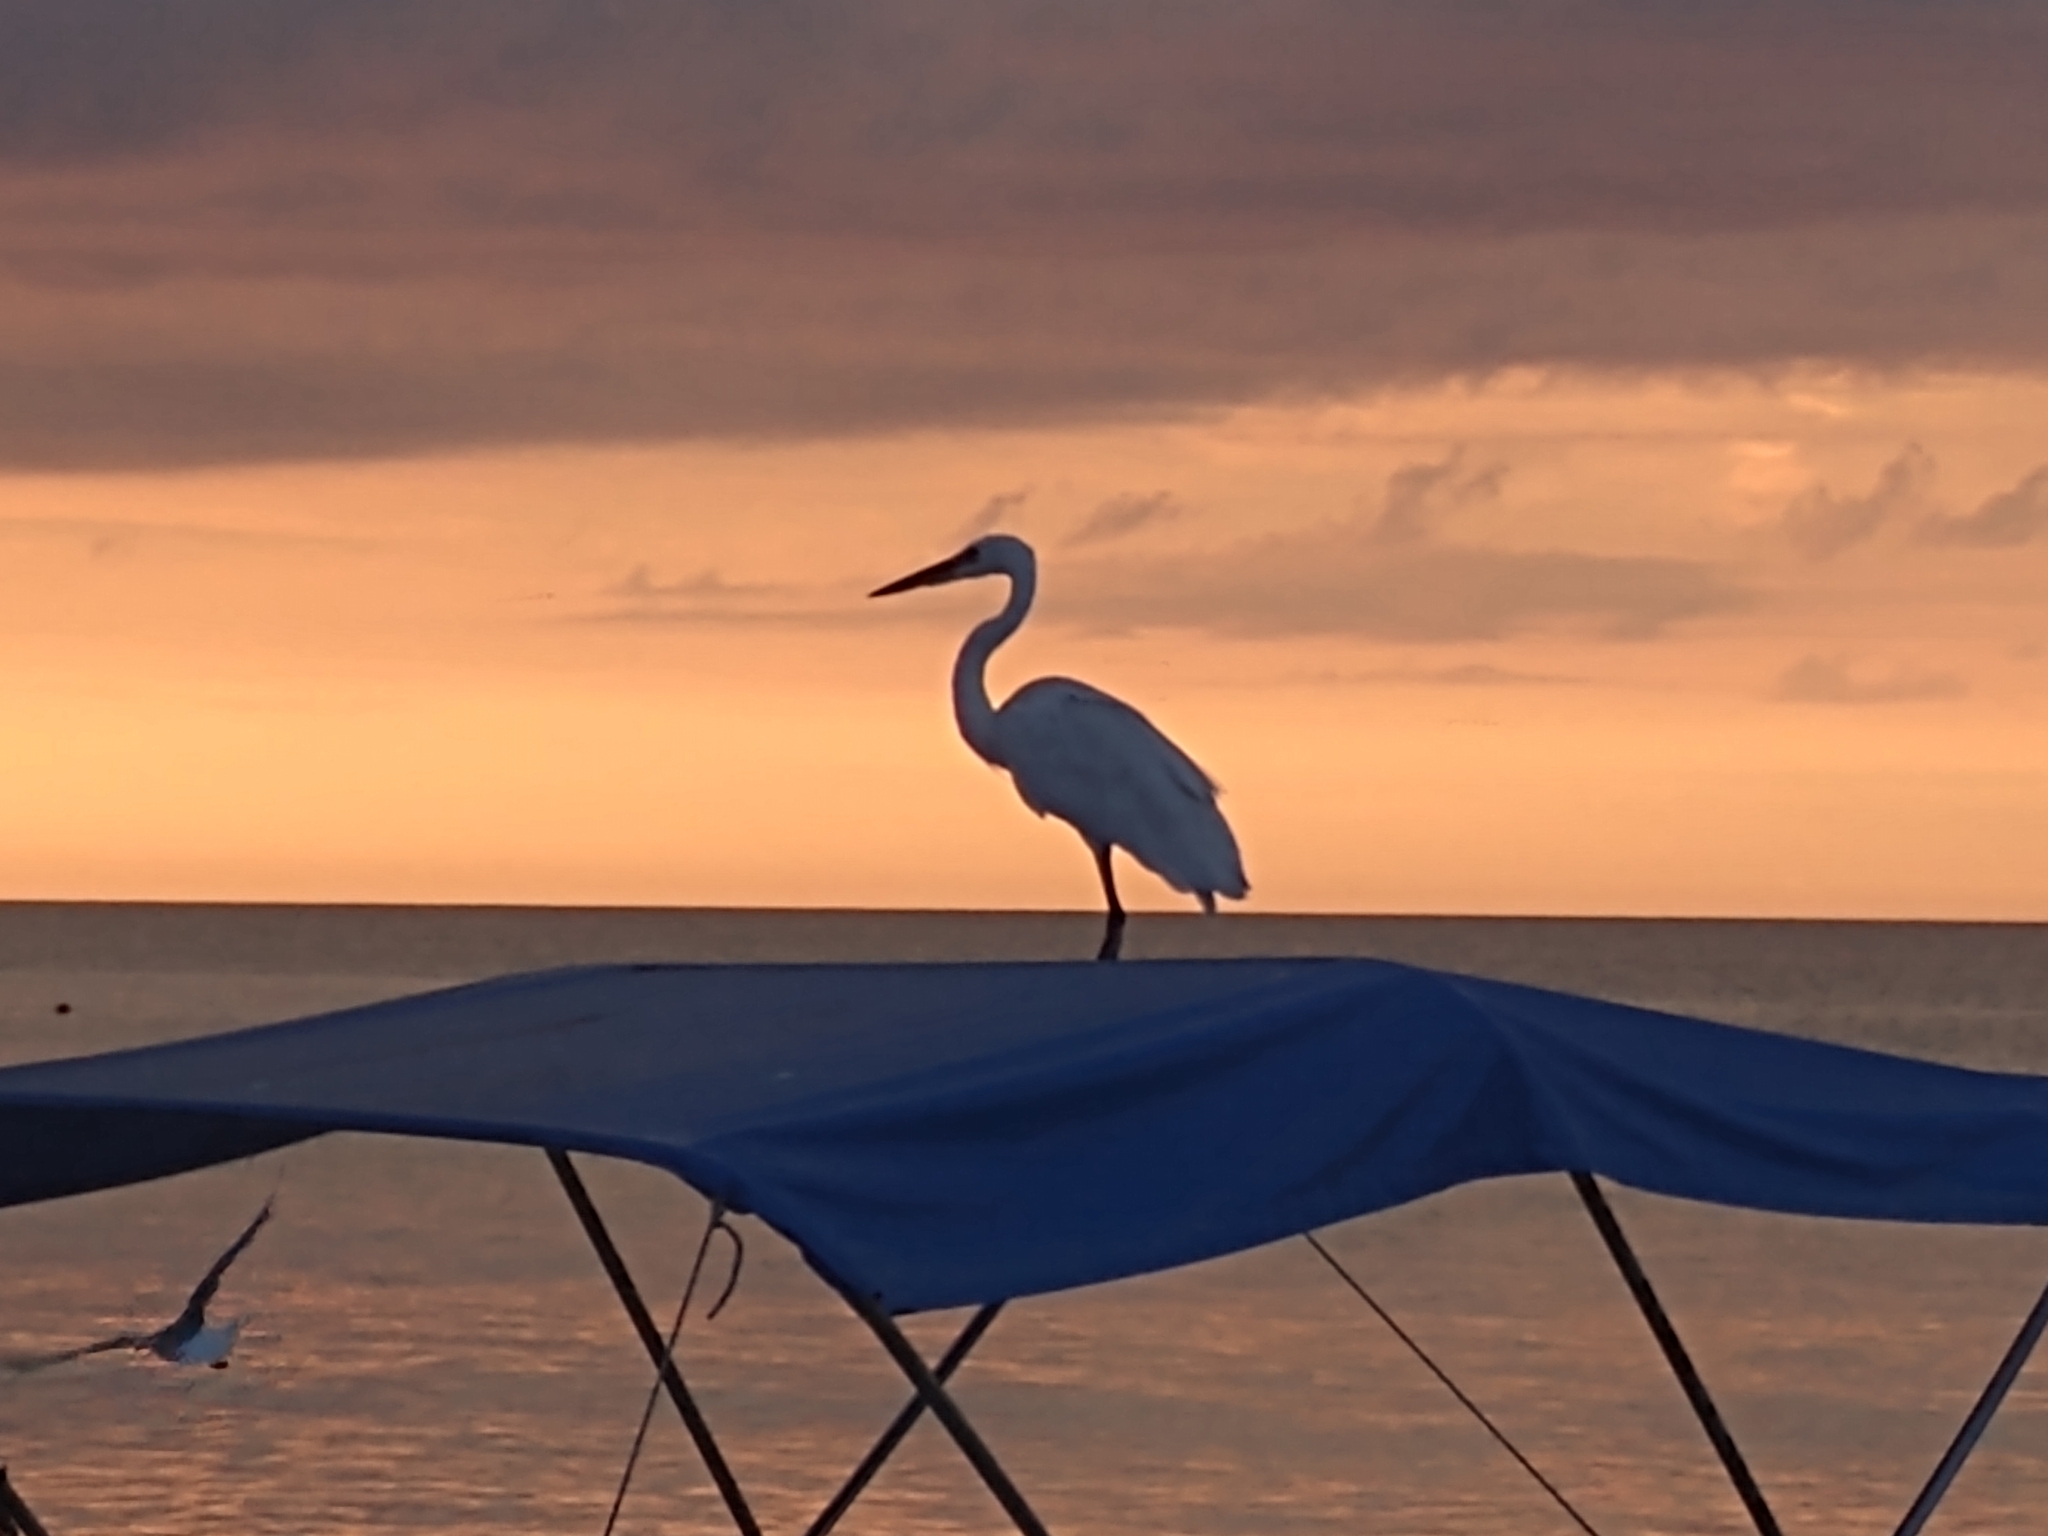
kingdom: Animalia
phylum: Chordata
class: Aves
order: Pelecaniformes
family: Ardeidae
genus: Ardea
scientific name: Ardea alba
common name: Great egret
